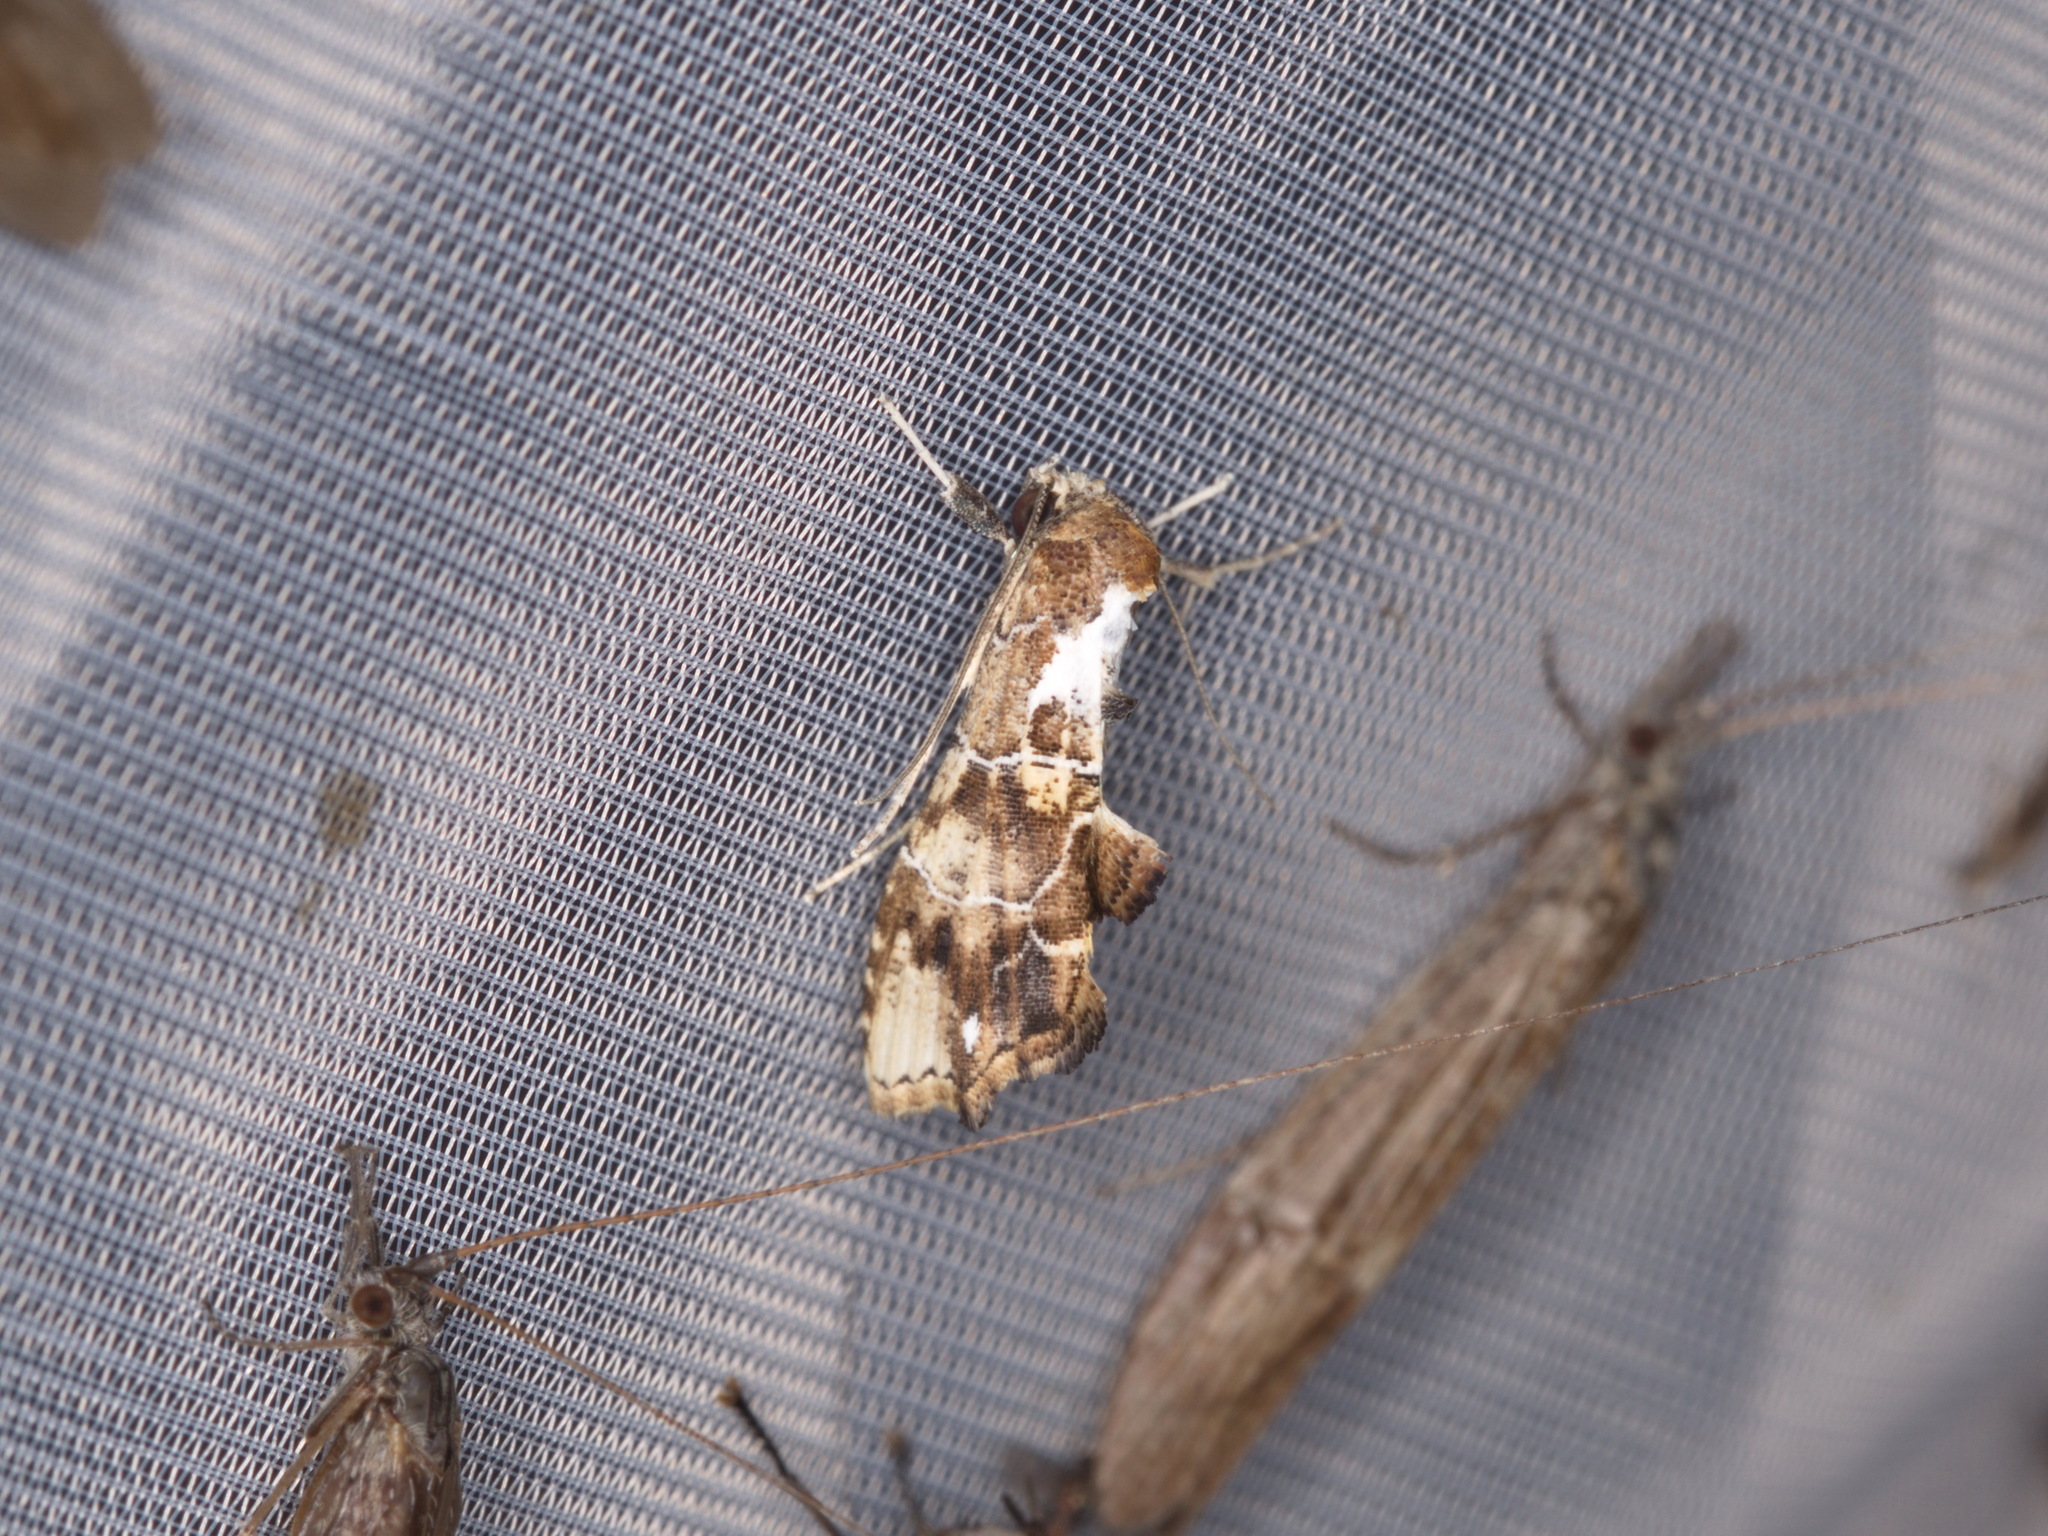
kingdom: Animalia
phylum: Arthropoda
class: Insecta
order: Lepidoptera
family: Erebidae
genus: Arrade
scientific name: Arrade leucocosmalis
